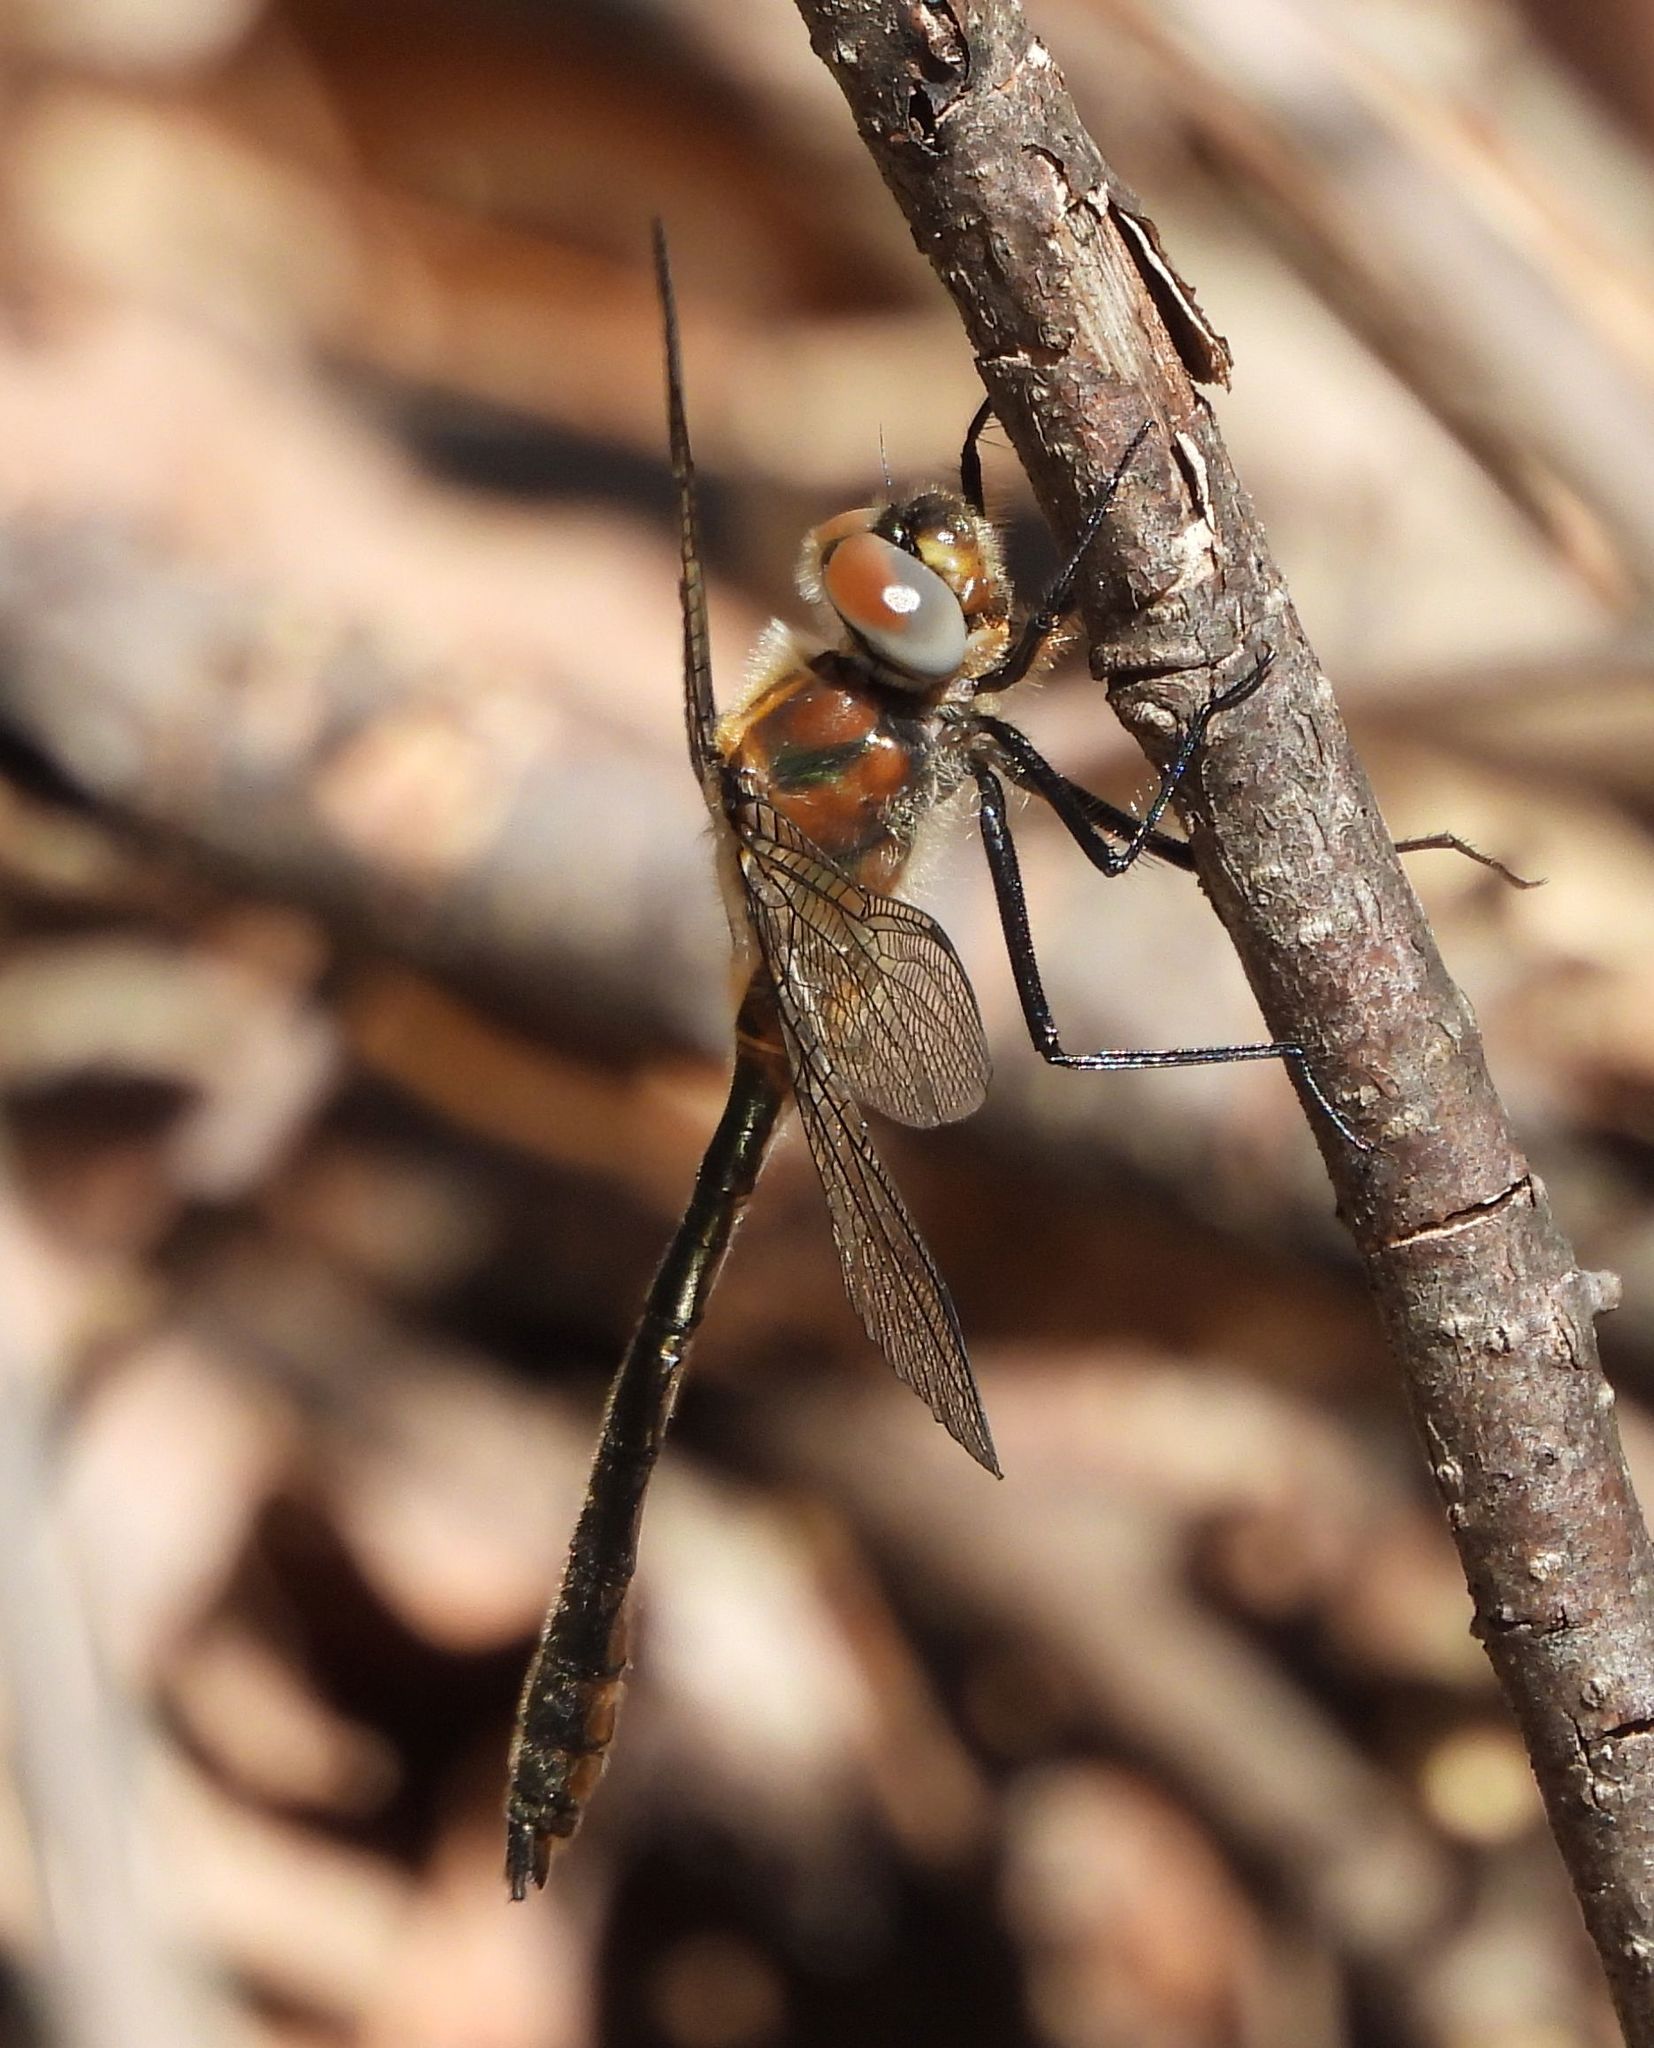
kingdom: Animalia
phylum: Arthropoda
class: Insecta
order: Odonata
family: Corduliidae
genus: Cordulia
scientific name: Cordulia shurtleffii
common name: American emerald
